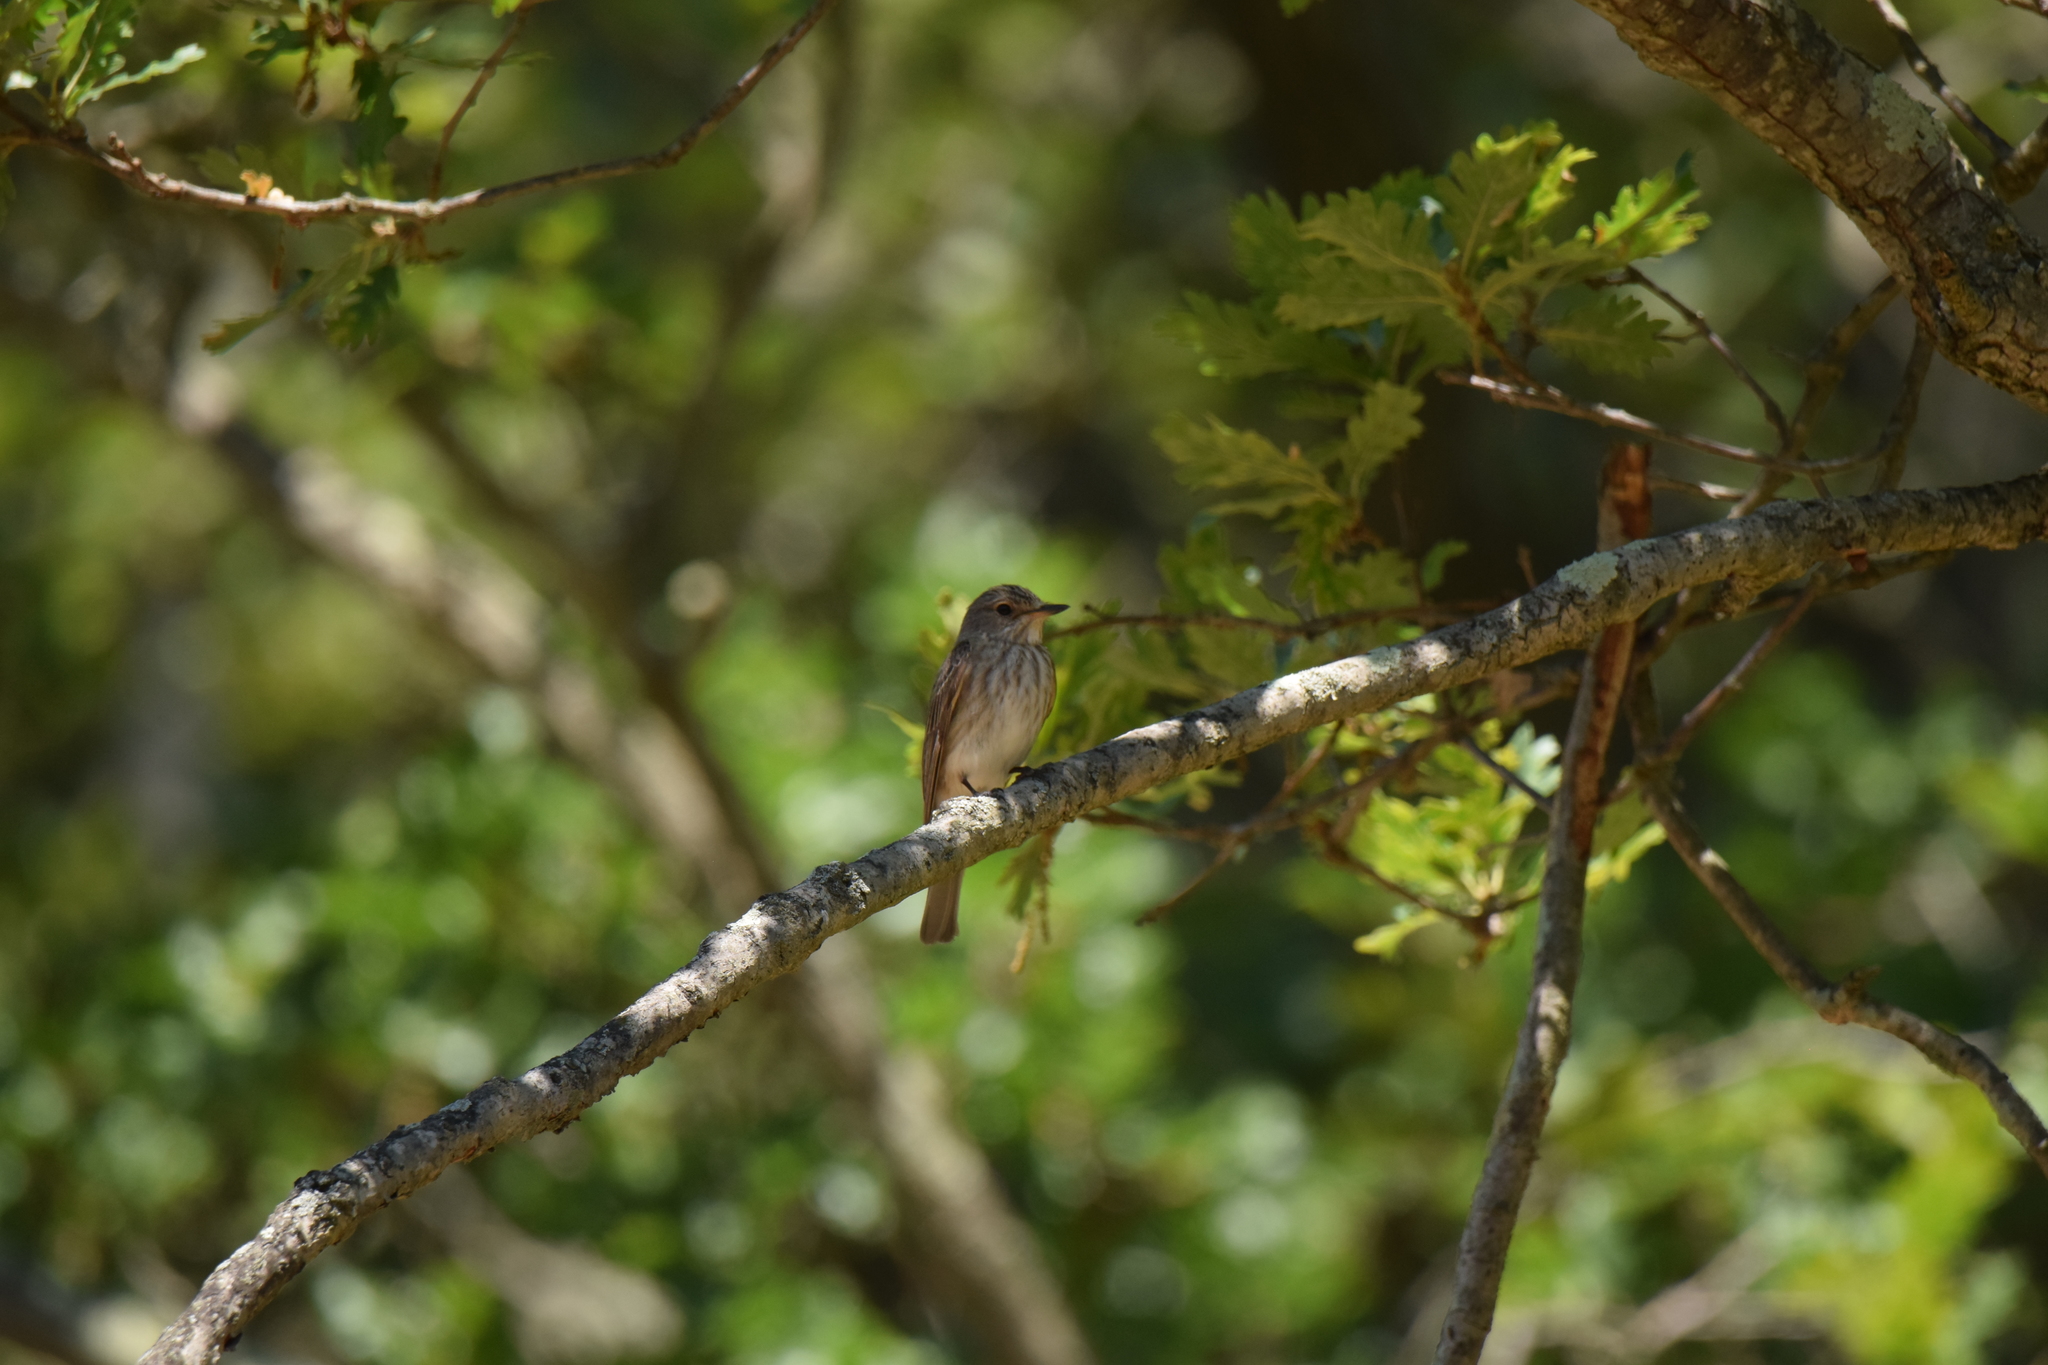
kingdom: Animalia
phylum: Chordata
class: Aves
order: Passeriformes
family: Muscicapidae
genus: Muscicapa
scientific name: Muscicapa striata
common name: Spotted flycatcher
